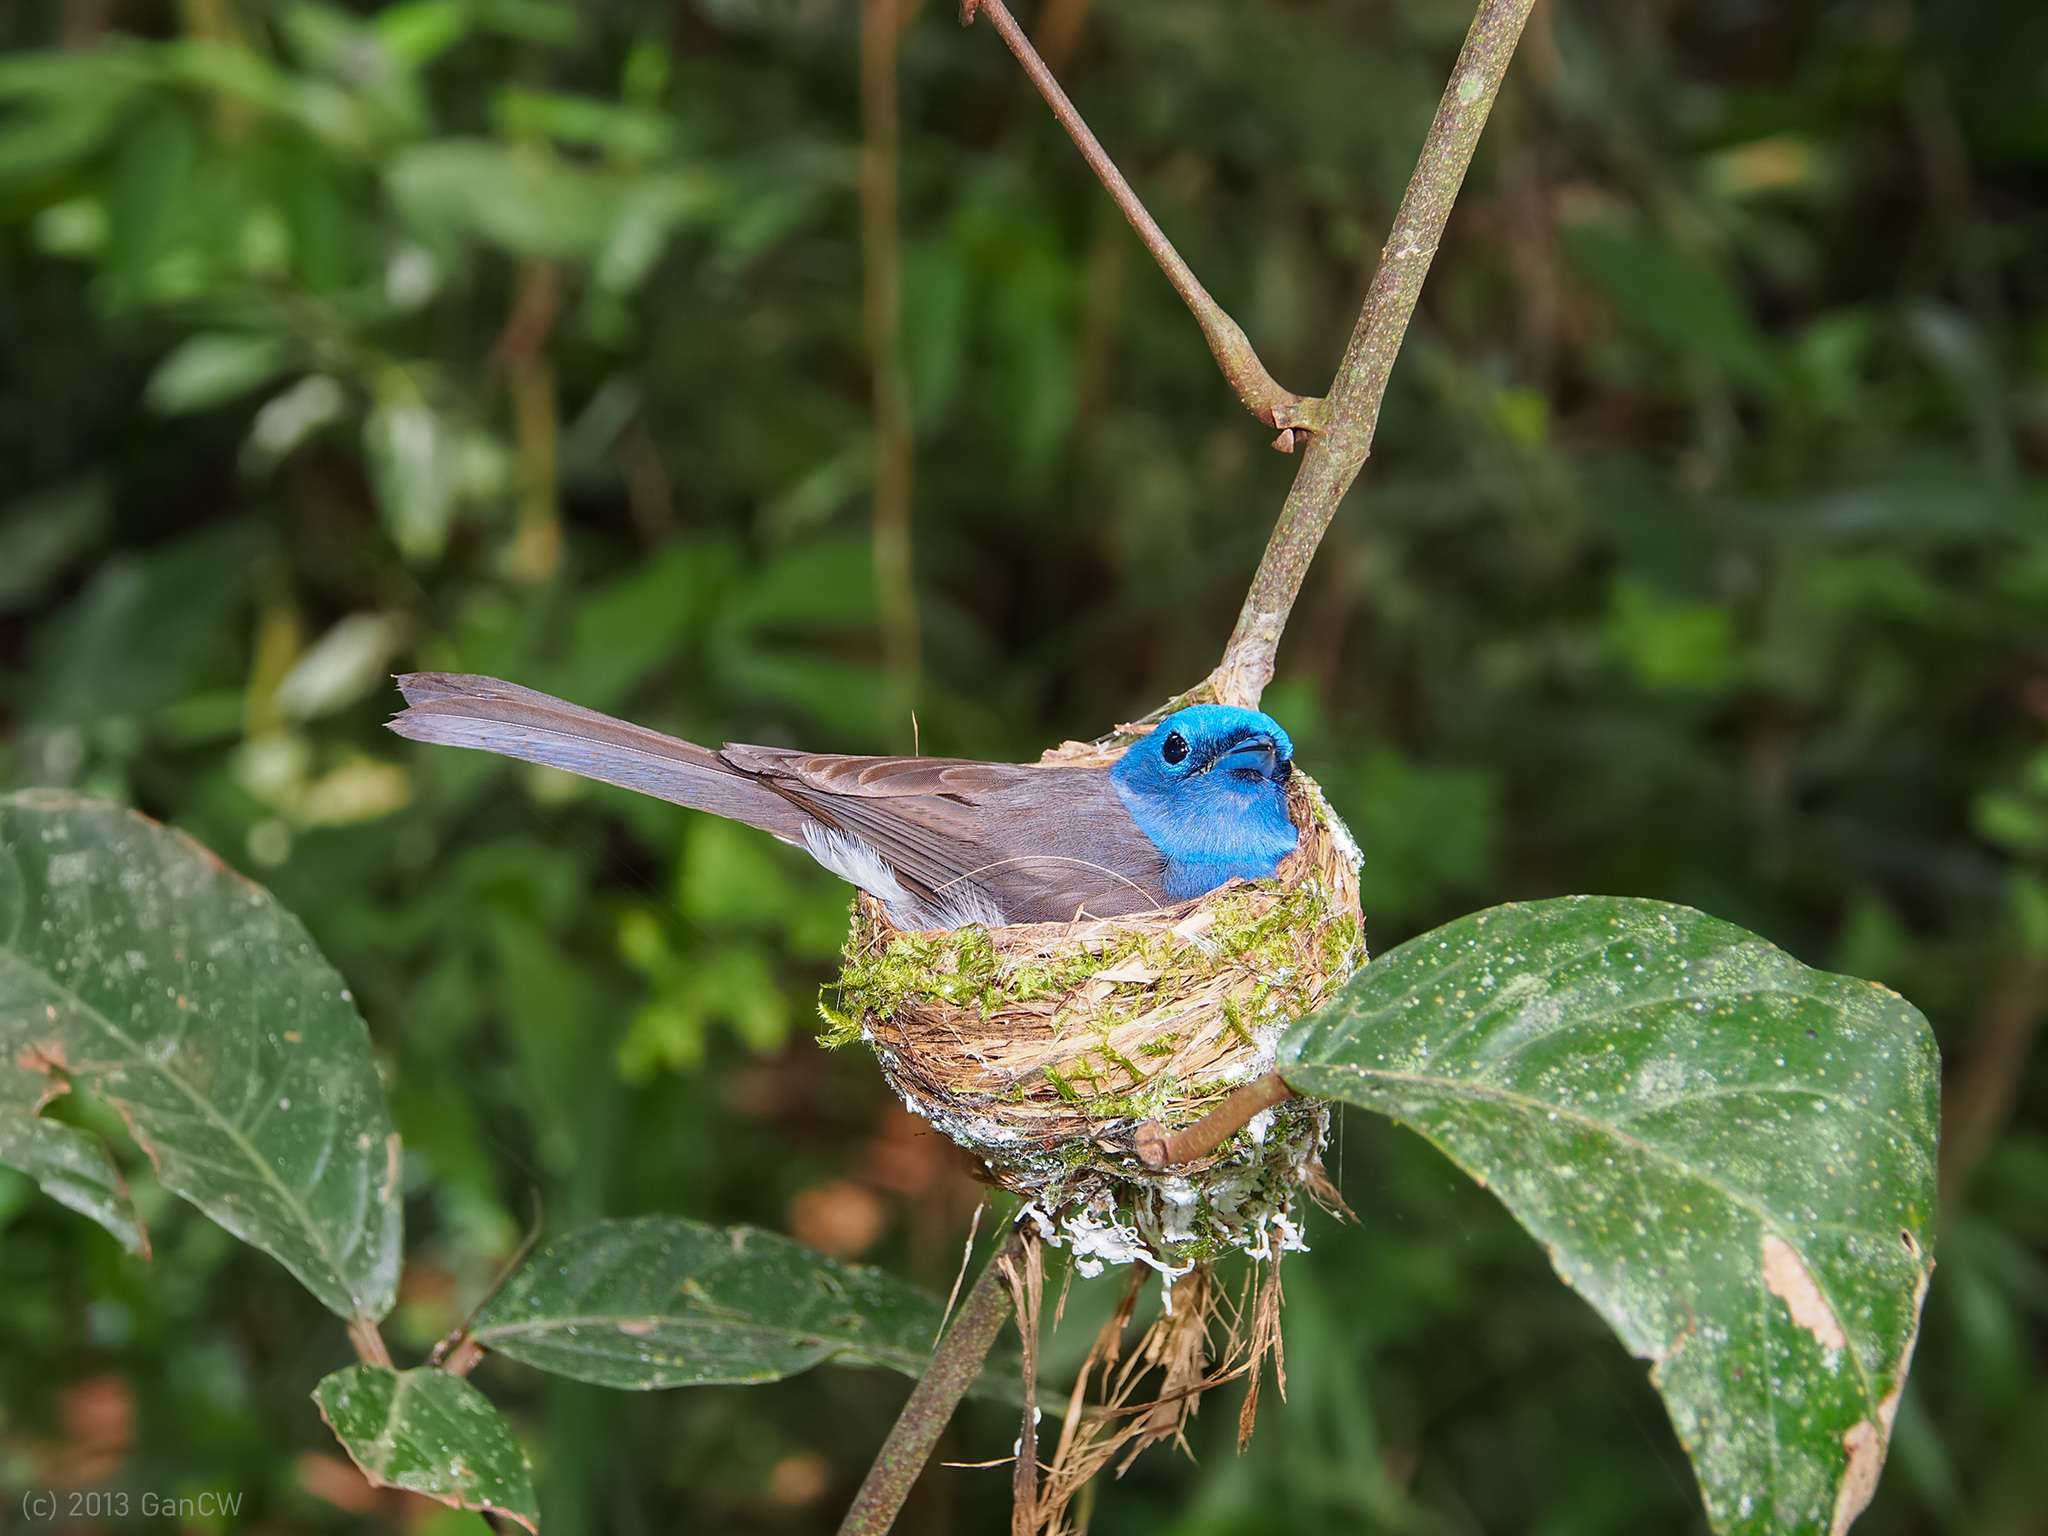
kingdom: Animalia
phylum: Chordata
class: Aves
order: Passeriformes
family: Monarchidae
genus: Hypothymis
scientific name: Hypothymis azurea
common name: Black-naped monarch
